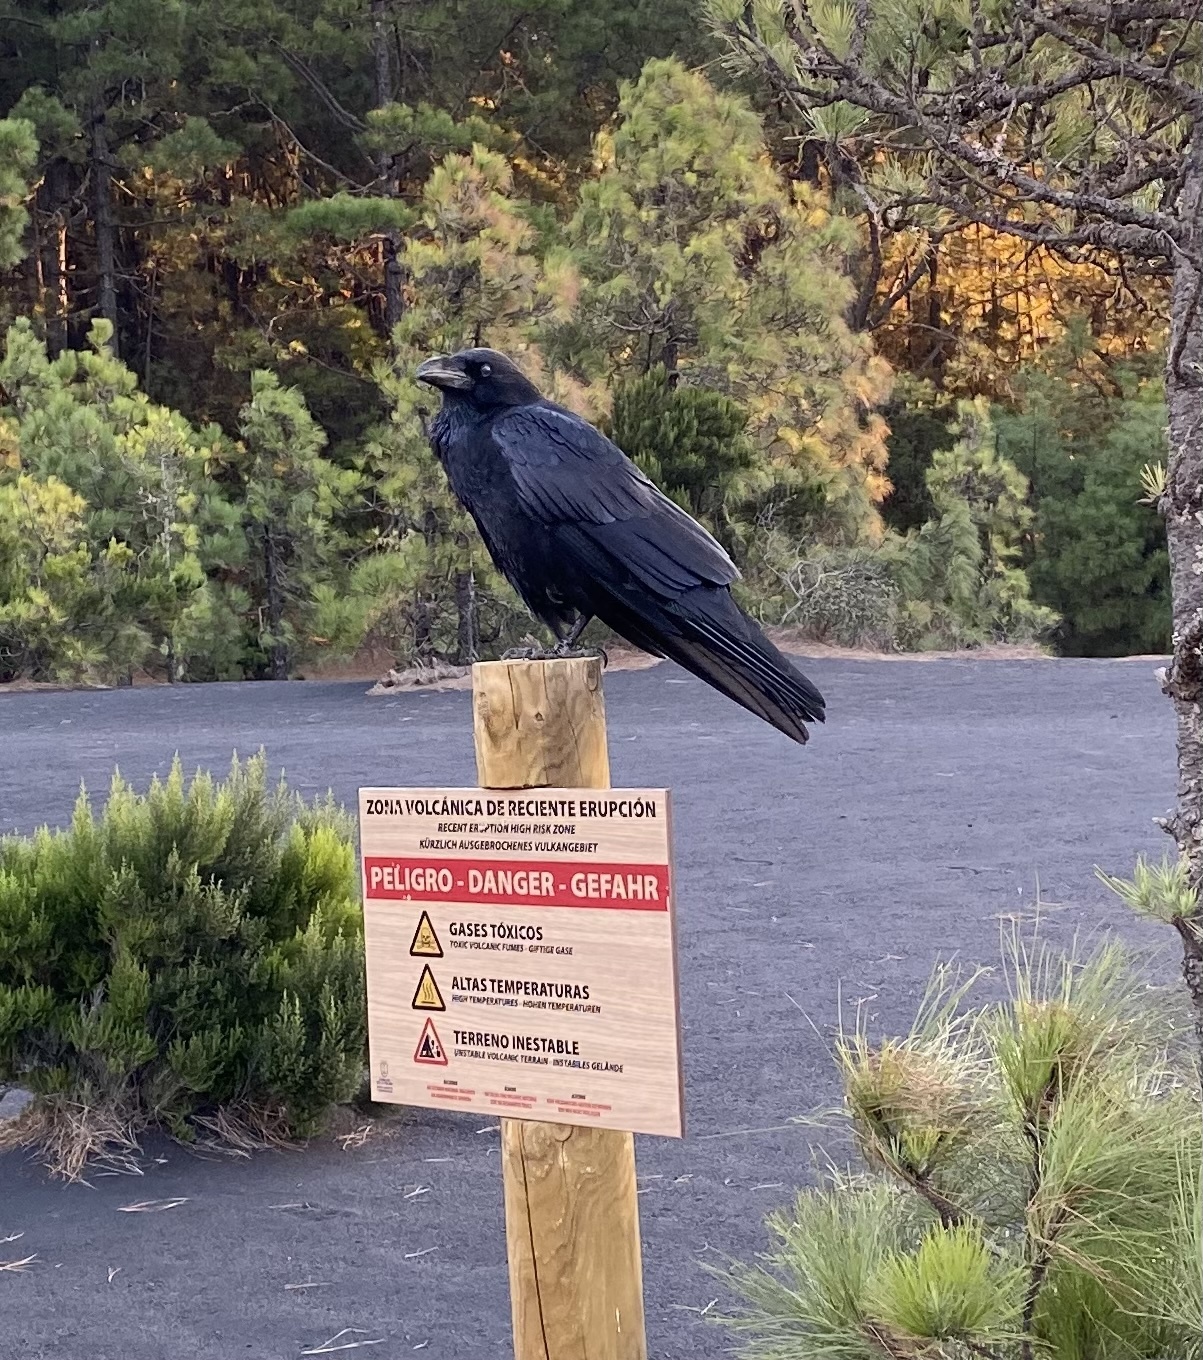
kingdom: Animalia
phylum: Chordata
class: Aves
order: Passeriformes
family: Corvidae
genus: Corvus
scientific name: Corvus corax
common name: Common raven
